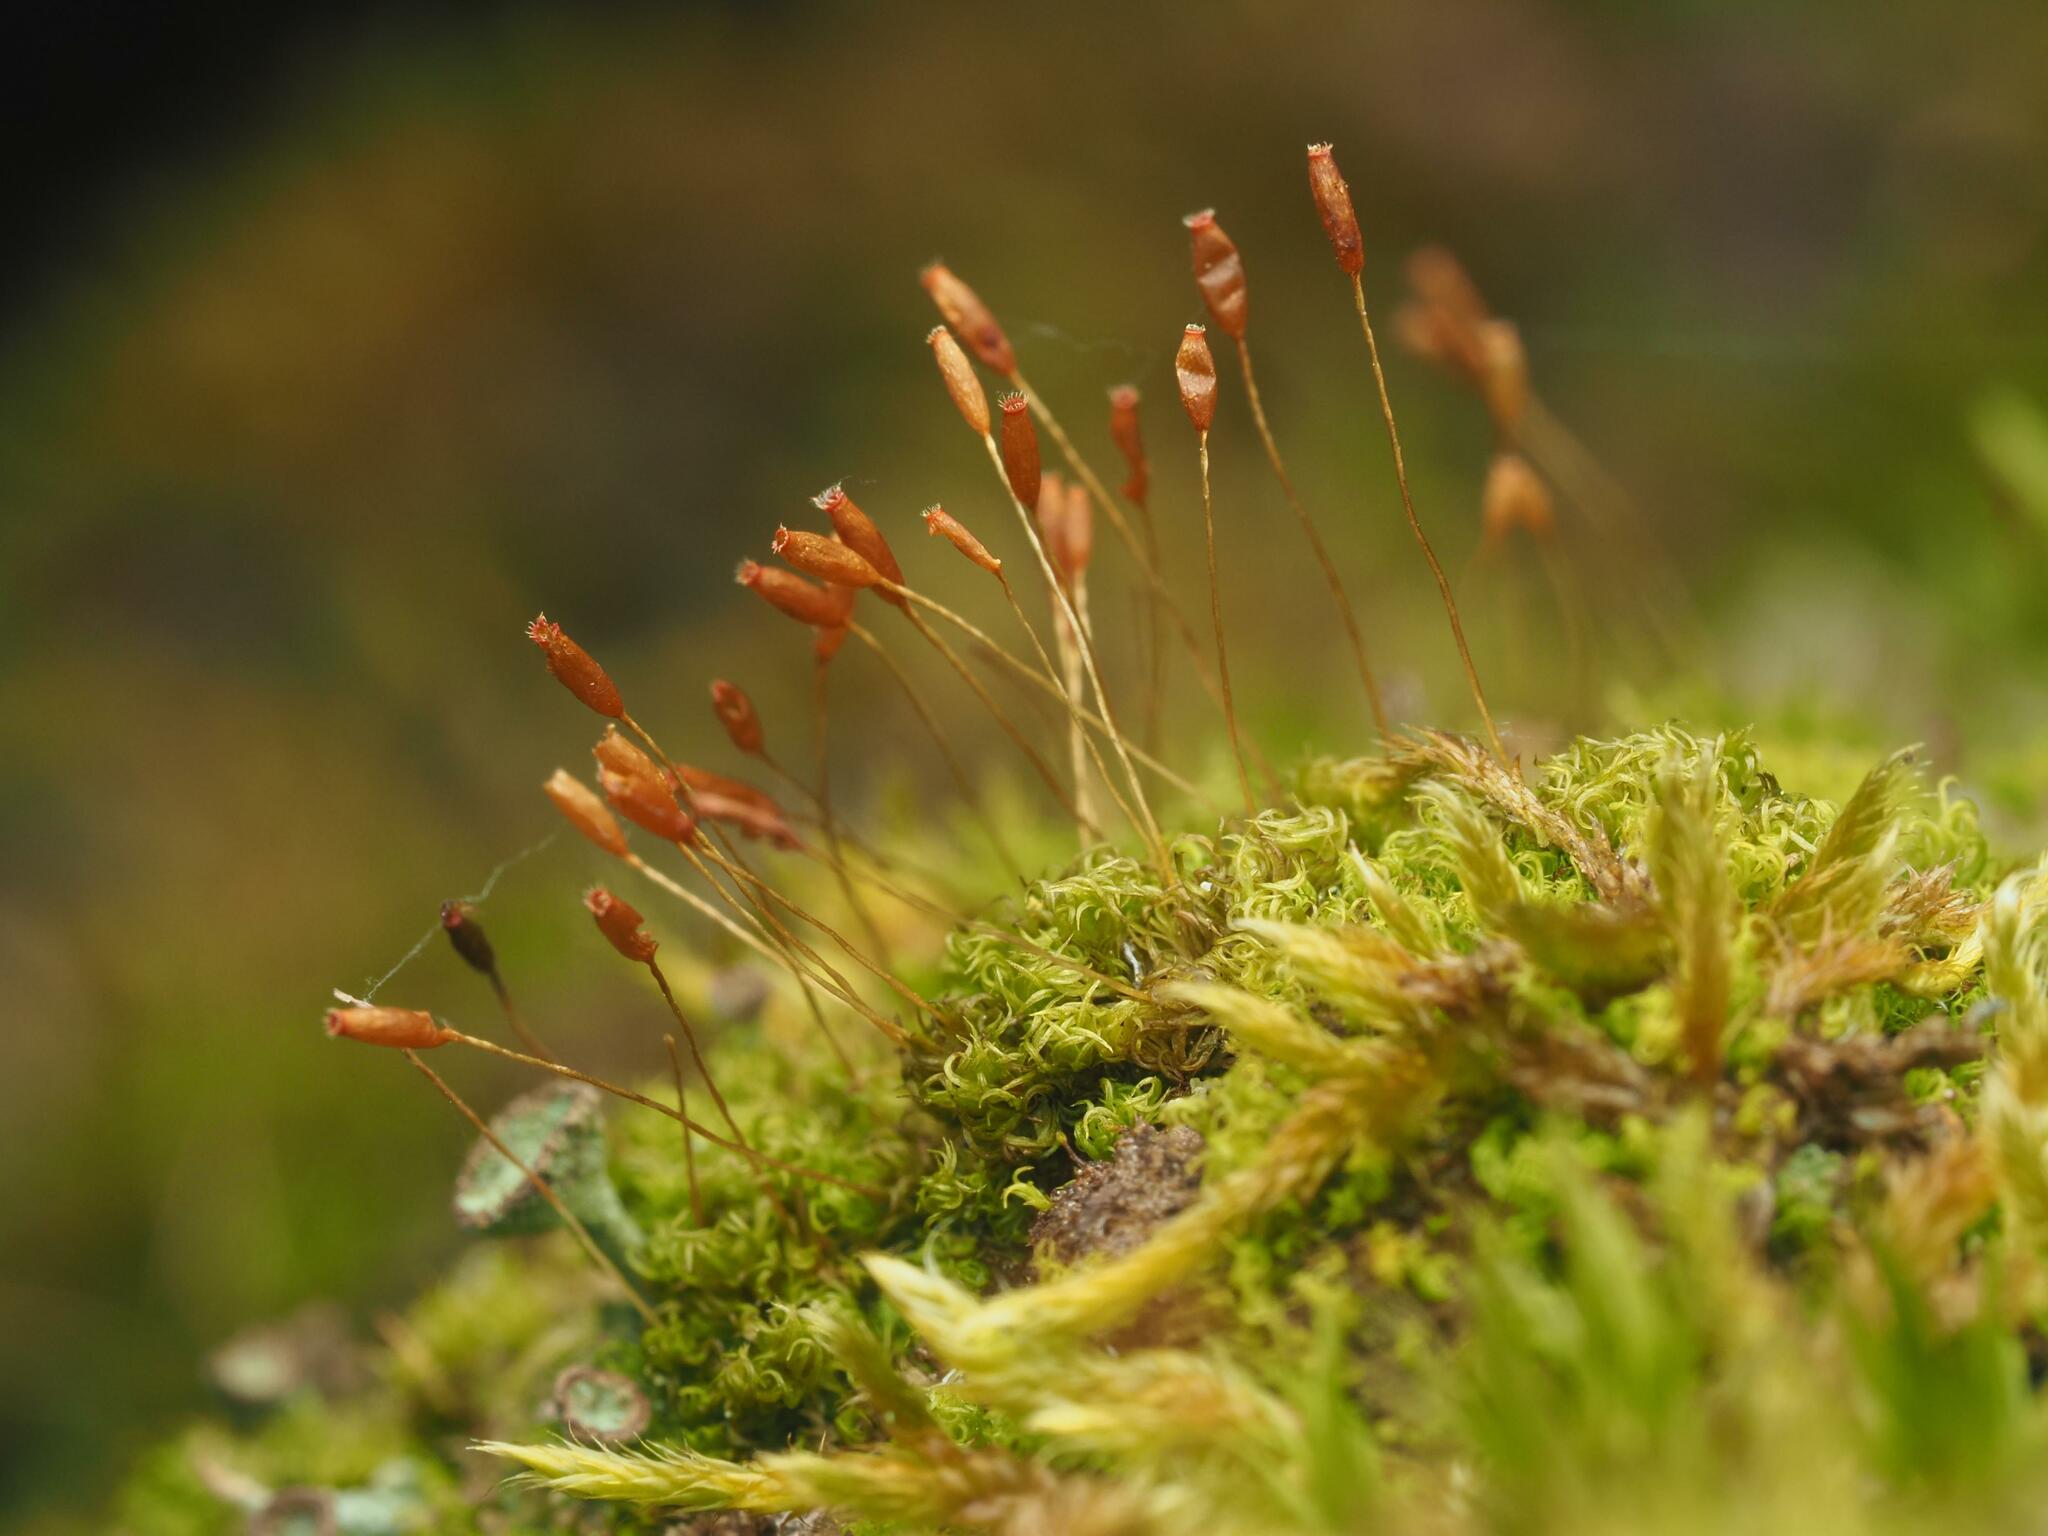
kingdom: Plantae
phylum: Bryophyta
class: Bryopsida
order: Dicranales
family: Rhabdoweisiaceae
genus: Dicranoweisia
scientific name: Dicranoweisia cirrata
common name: Common pincushion
